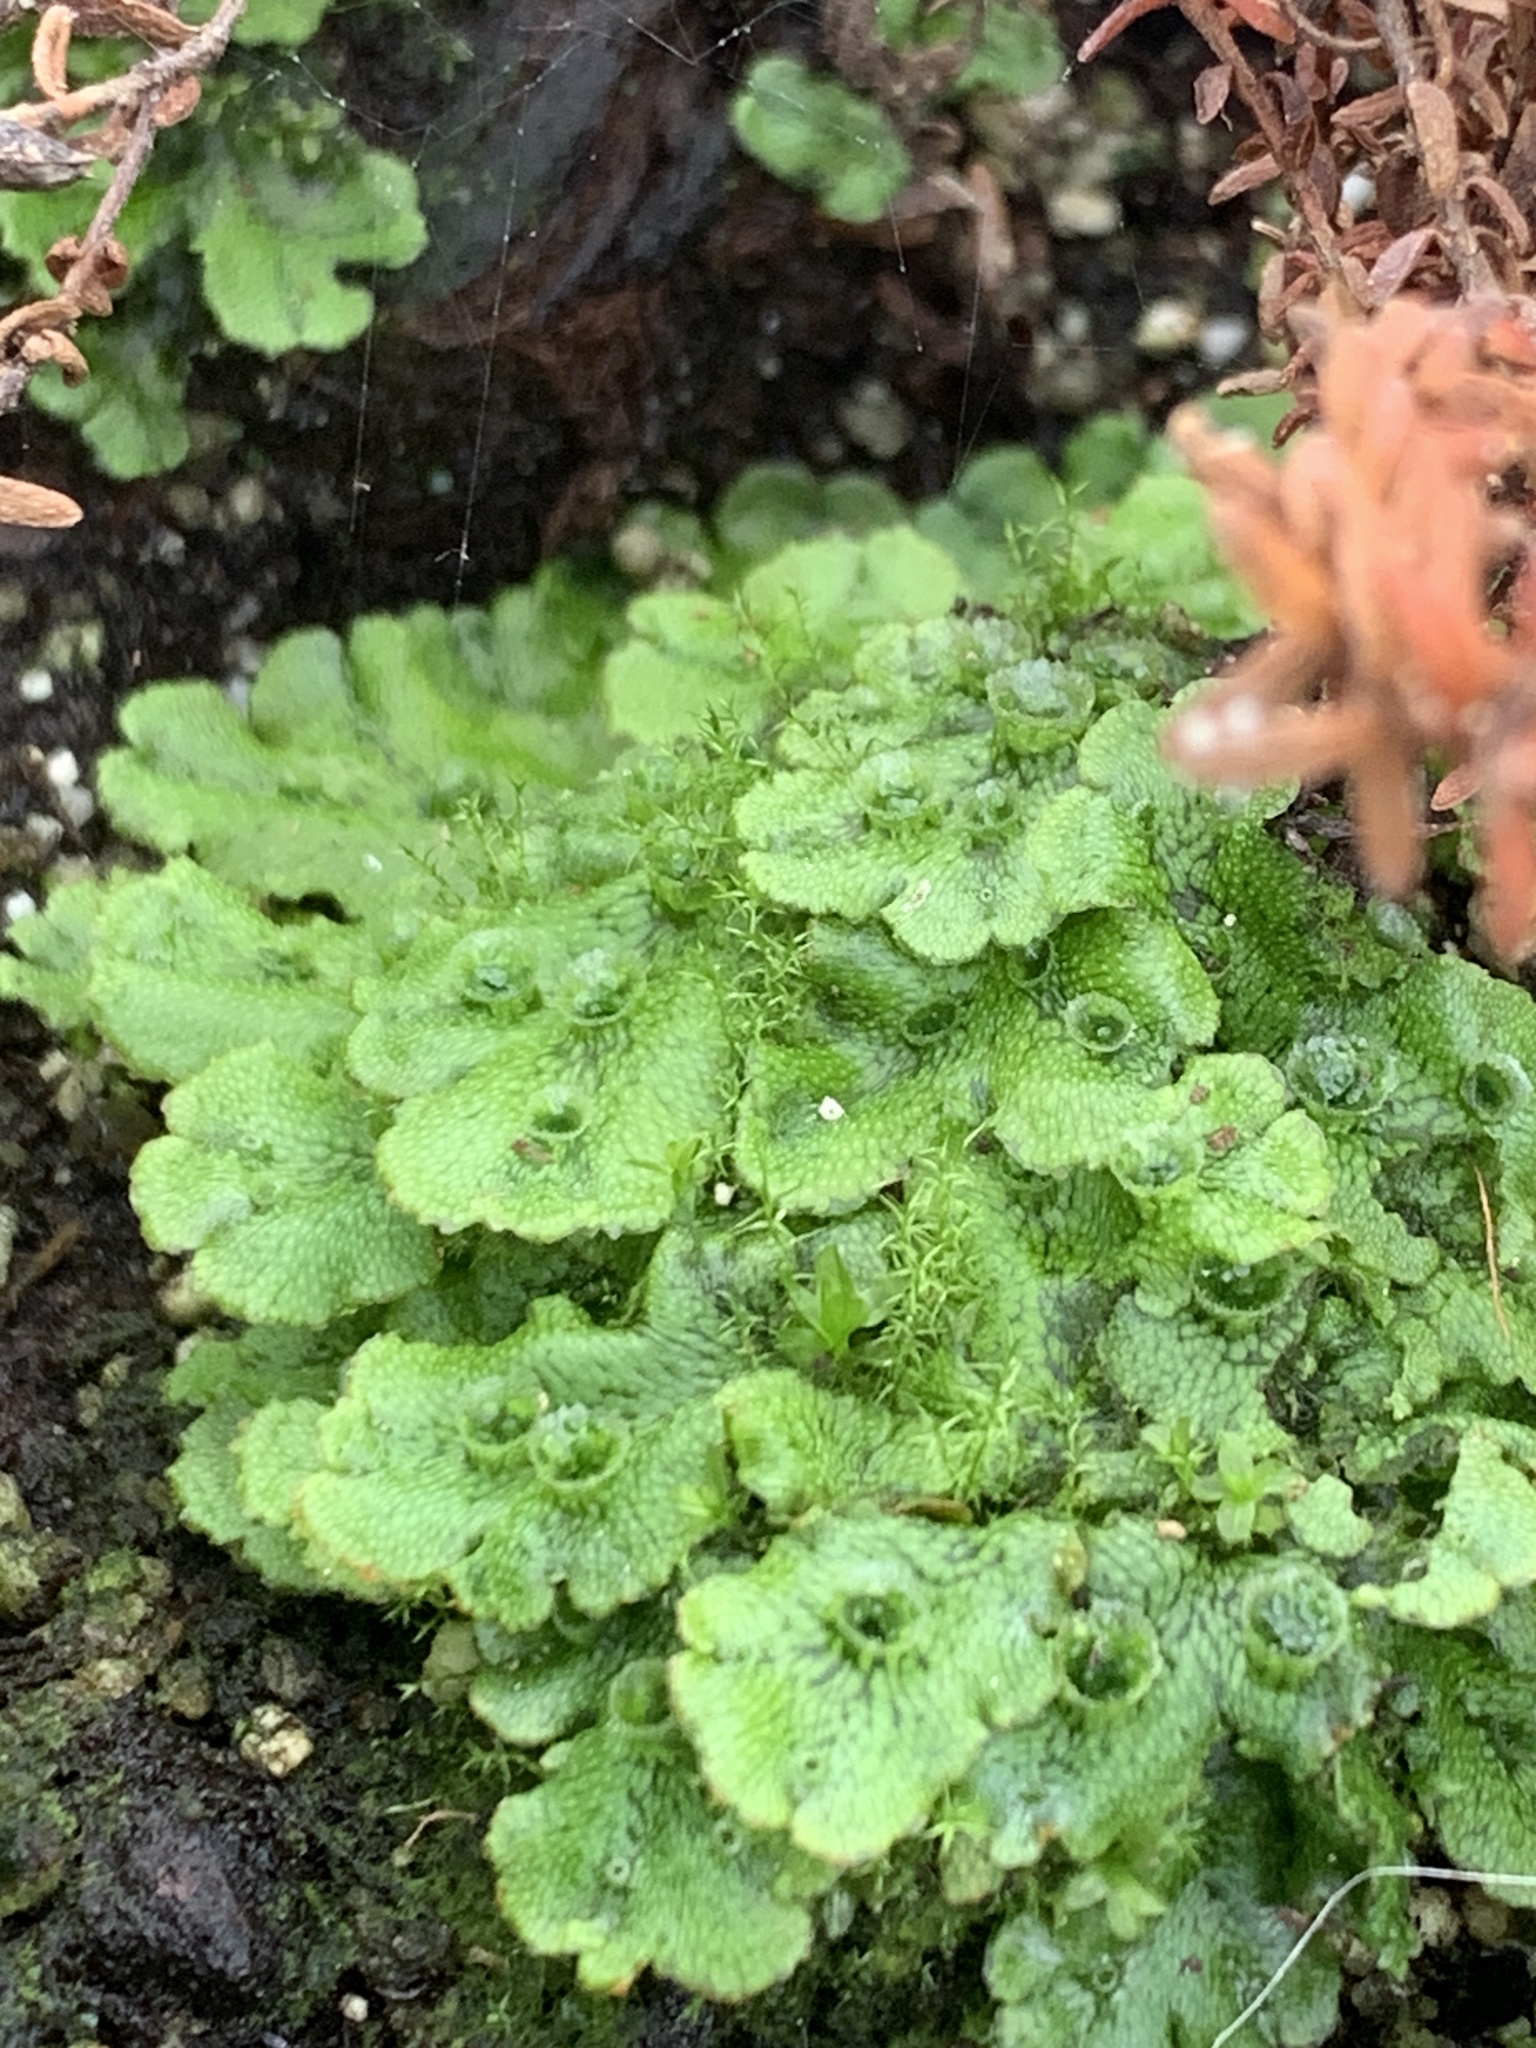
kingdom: Plantae
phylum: Marchantiophyta
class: Marchantiopsida
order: Marchantiales
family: Marchantiaceae
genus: Marchantia
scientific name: Marchantia polymorpha
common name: Common liverwort
